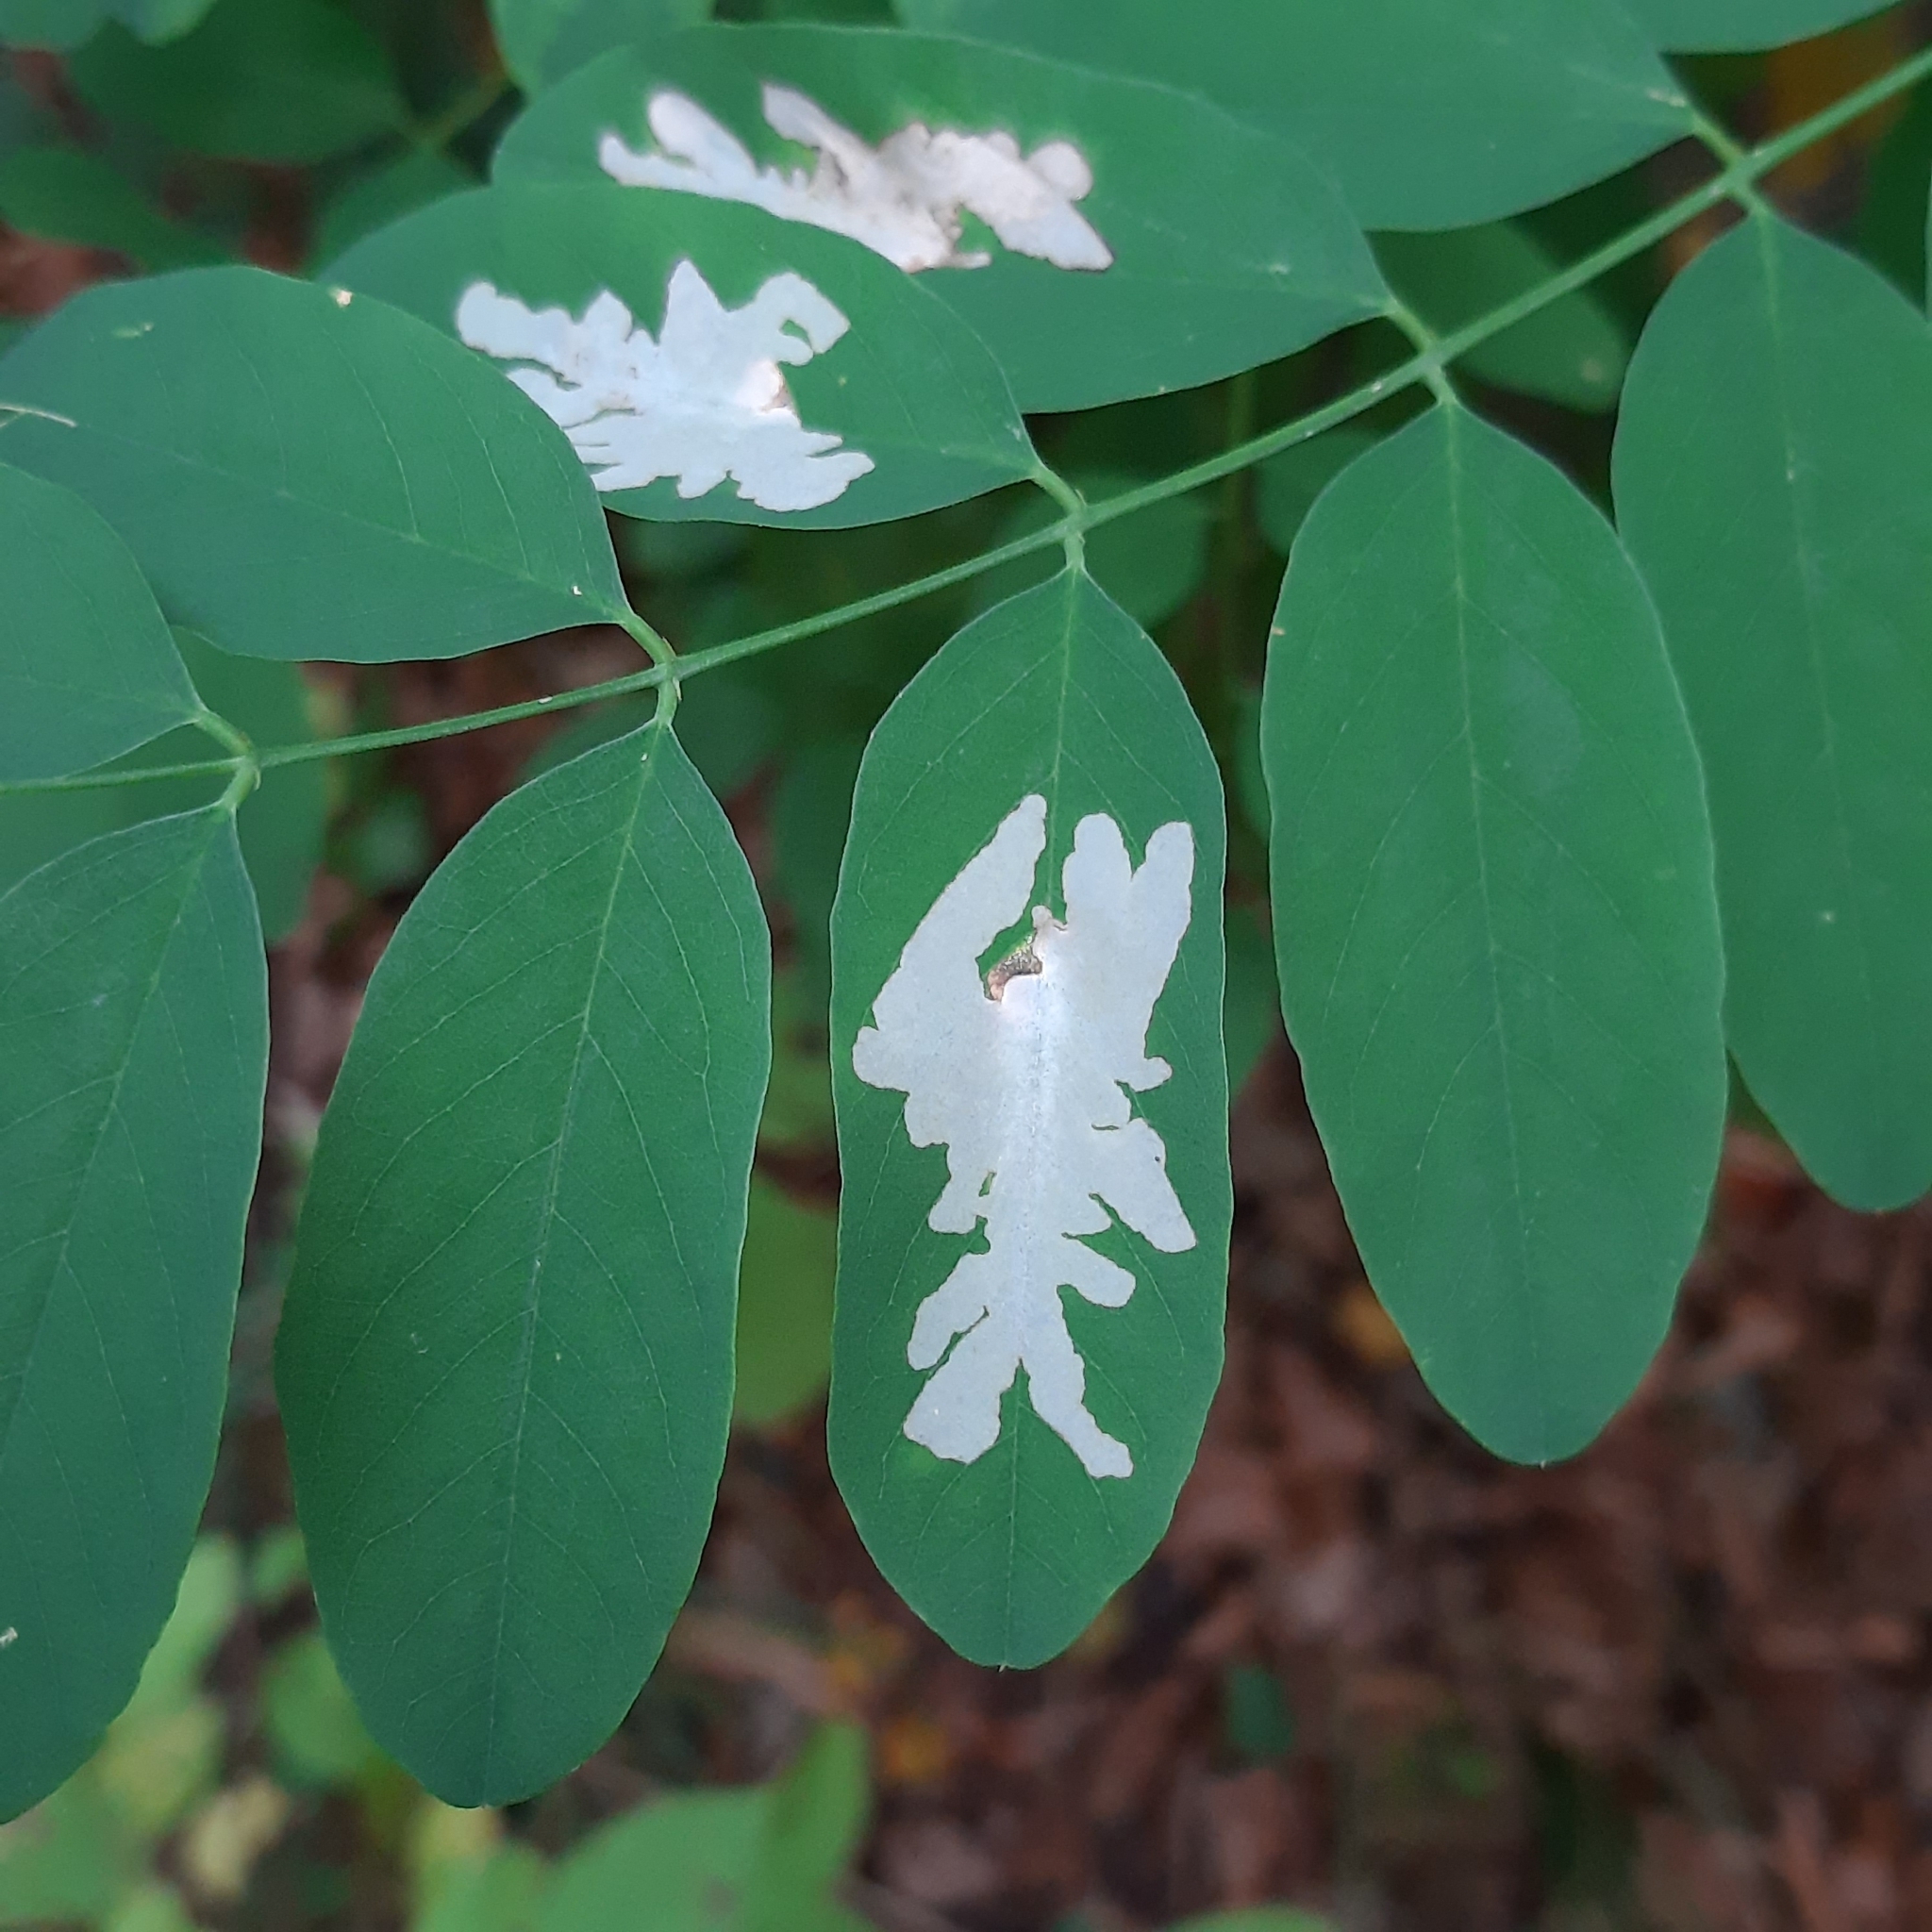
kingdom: Plantae
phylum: Tracheophyta
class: Magnoliopsida
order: Fabales
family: Fabaceae
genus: Robinia
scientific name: Robinia pseudoacacia
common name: Black locust
